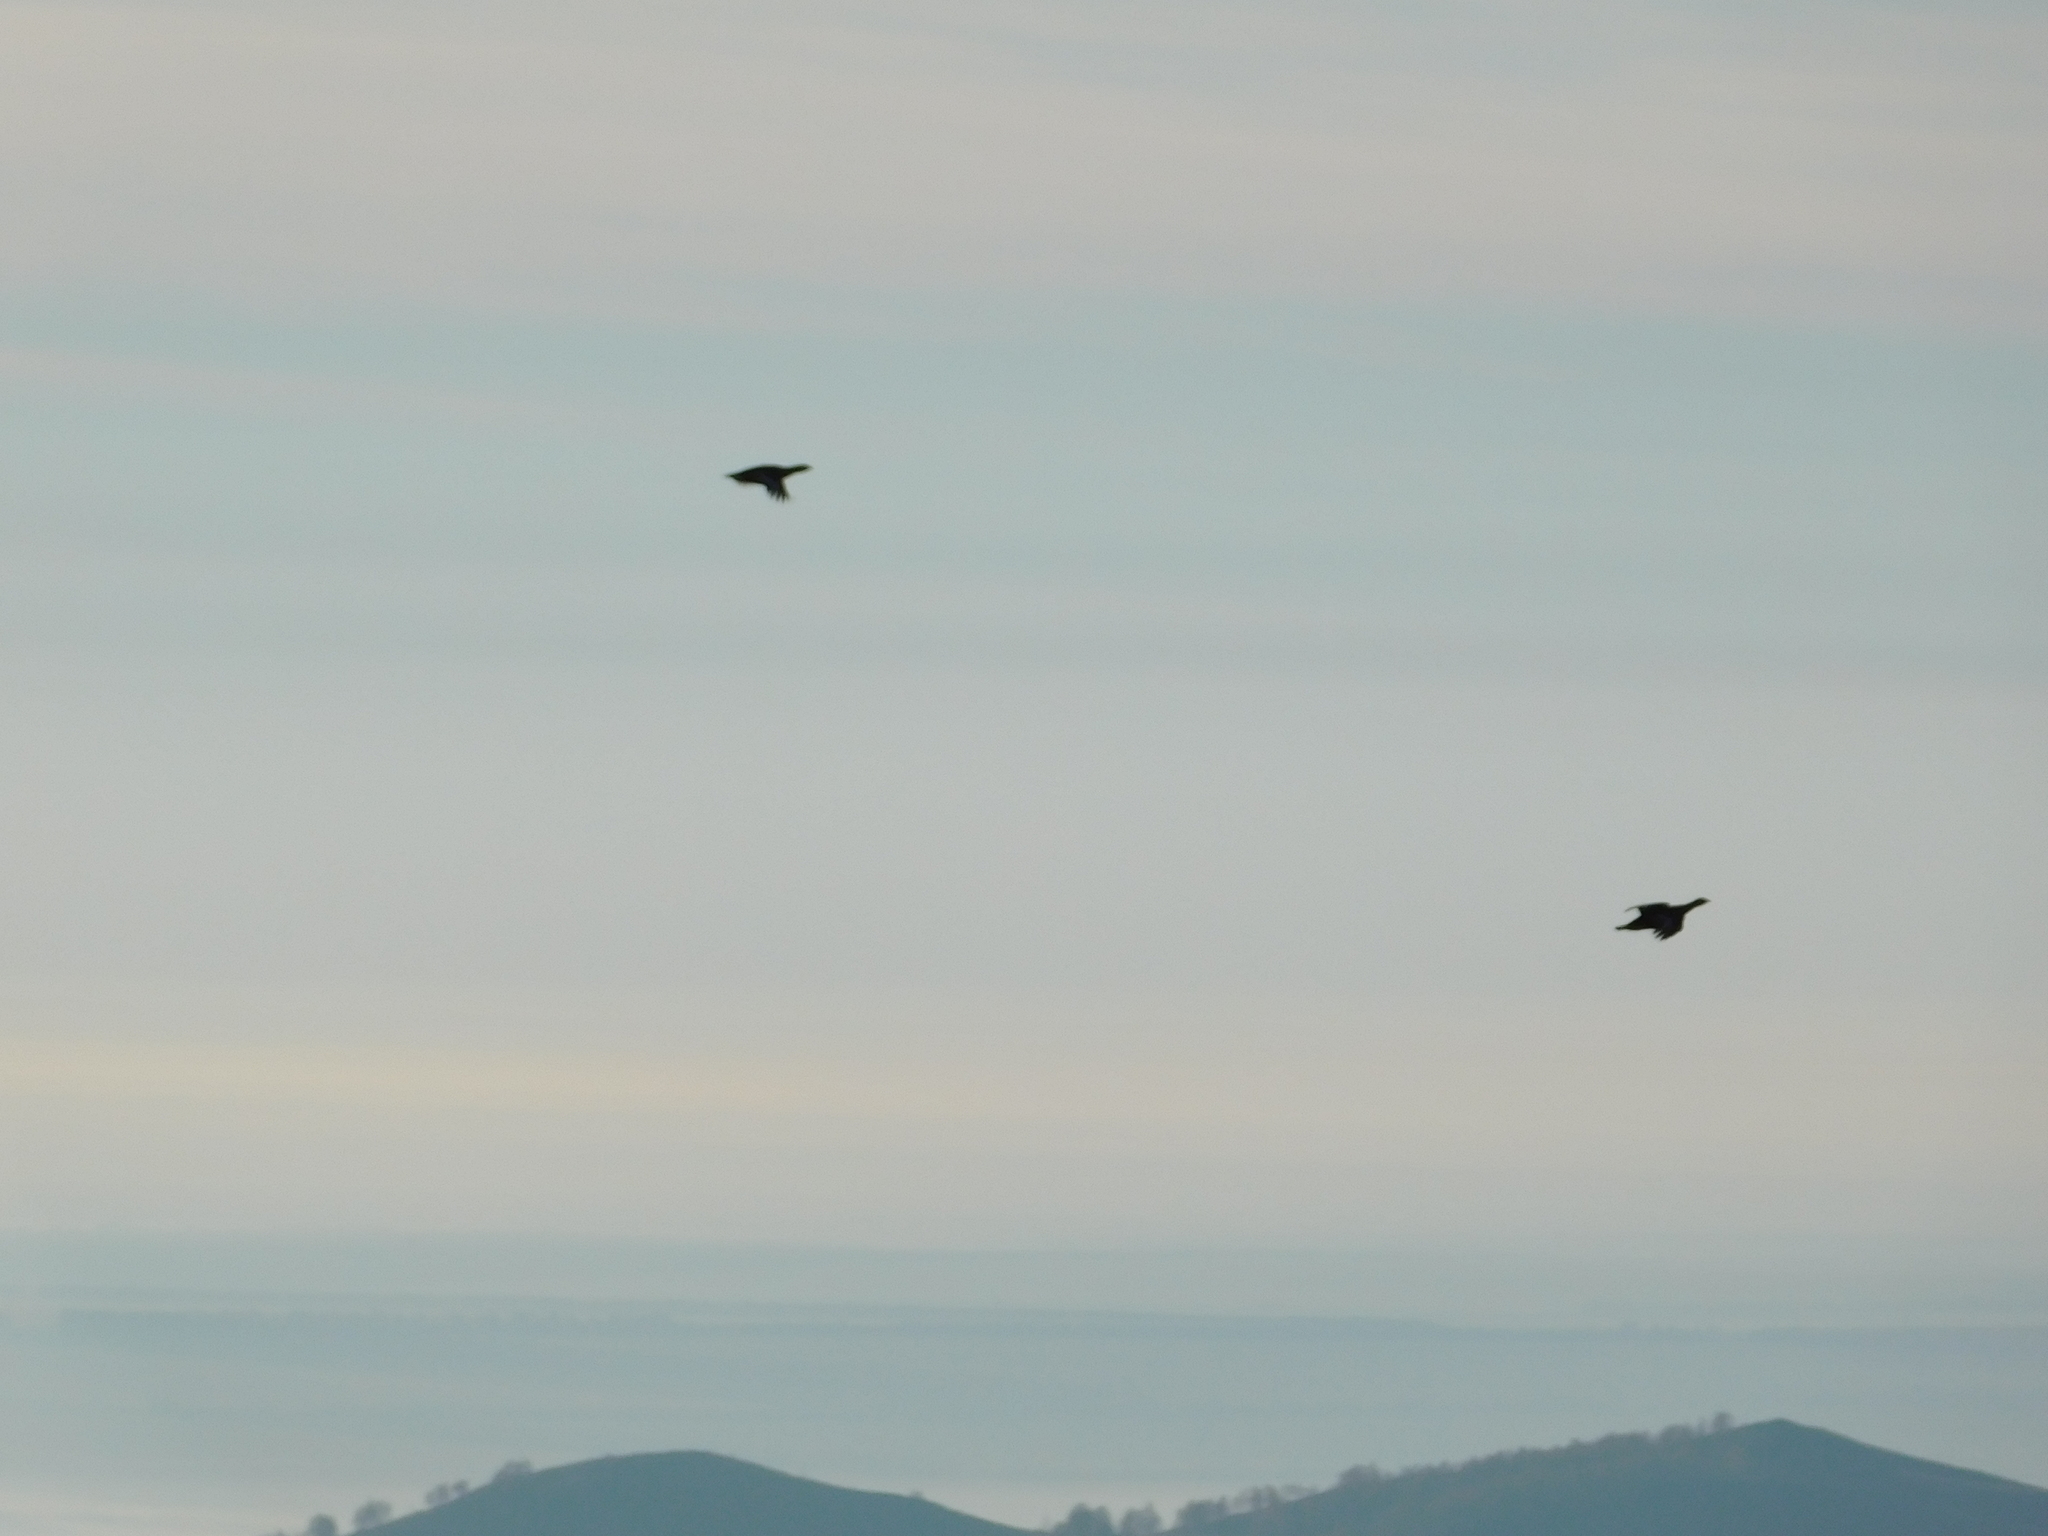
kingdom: Animalia
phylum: Chordata
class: Aves
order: Galliformes
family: Phasianidae
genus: Lyrurus
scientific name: Lyrurus tetrix
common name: Black grouse
